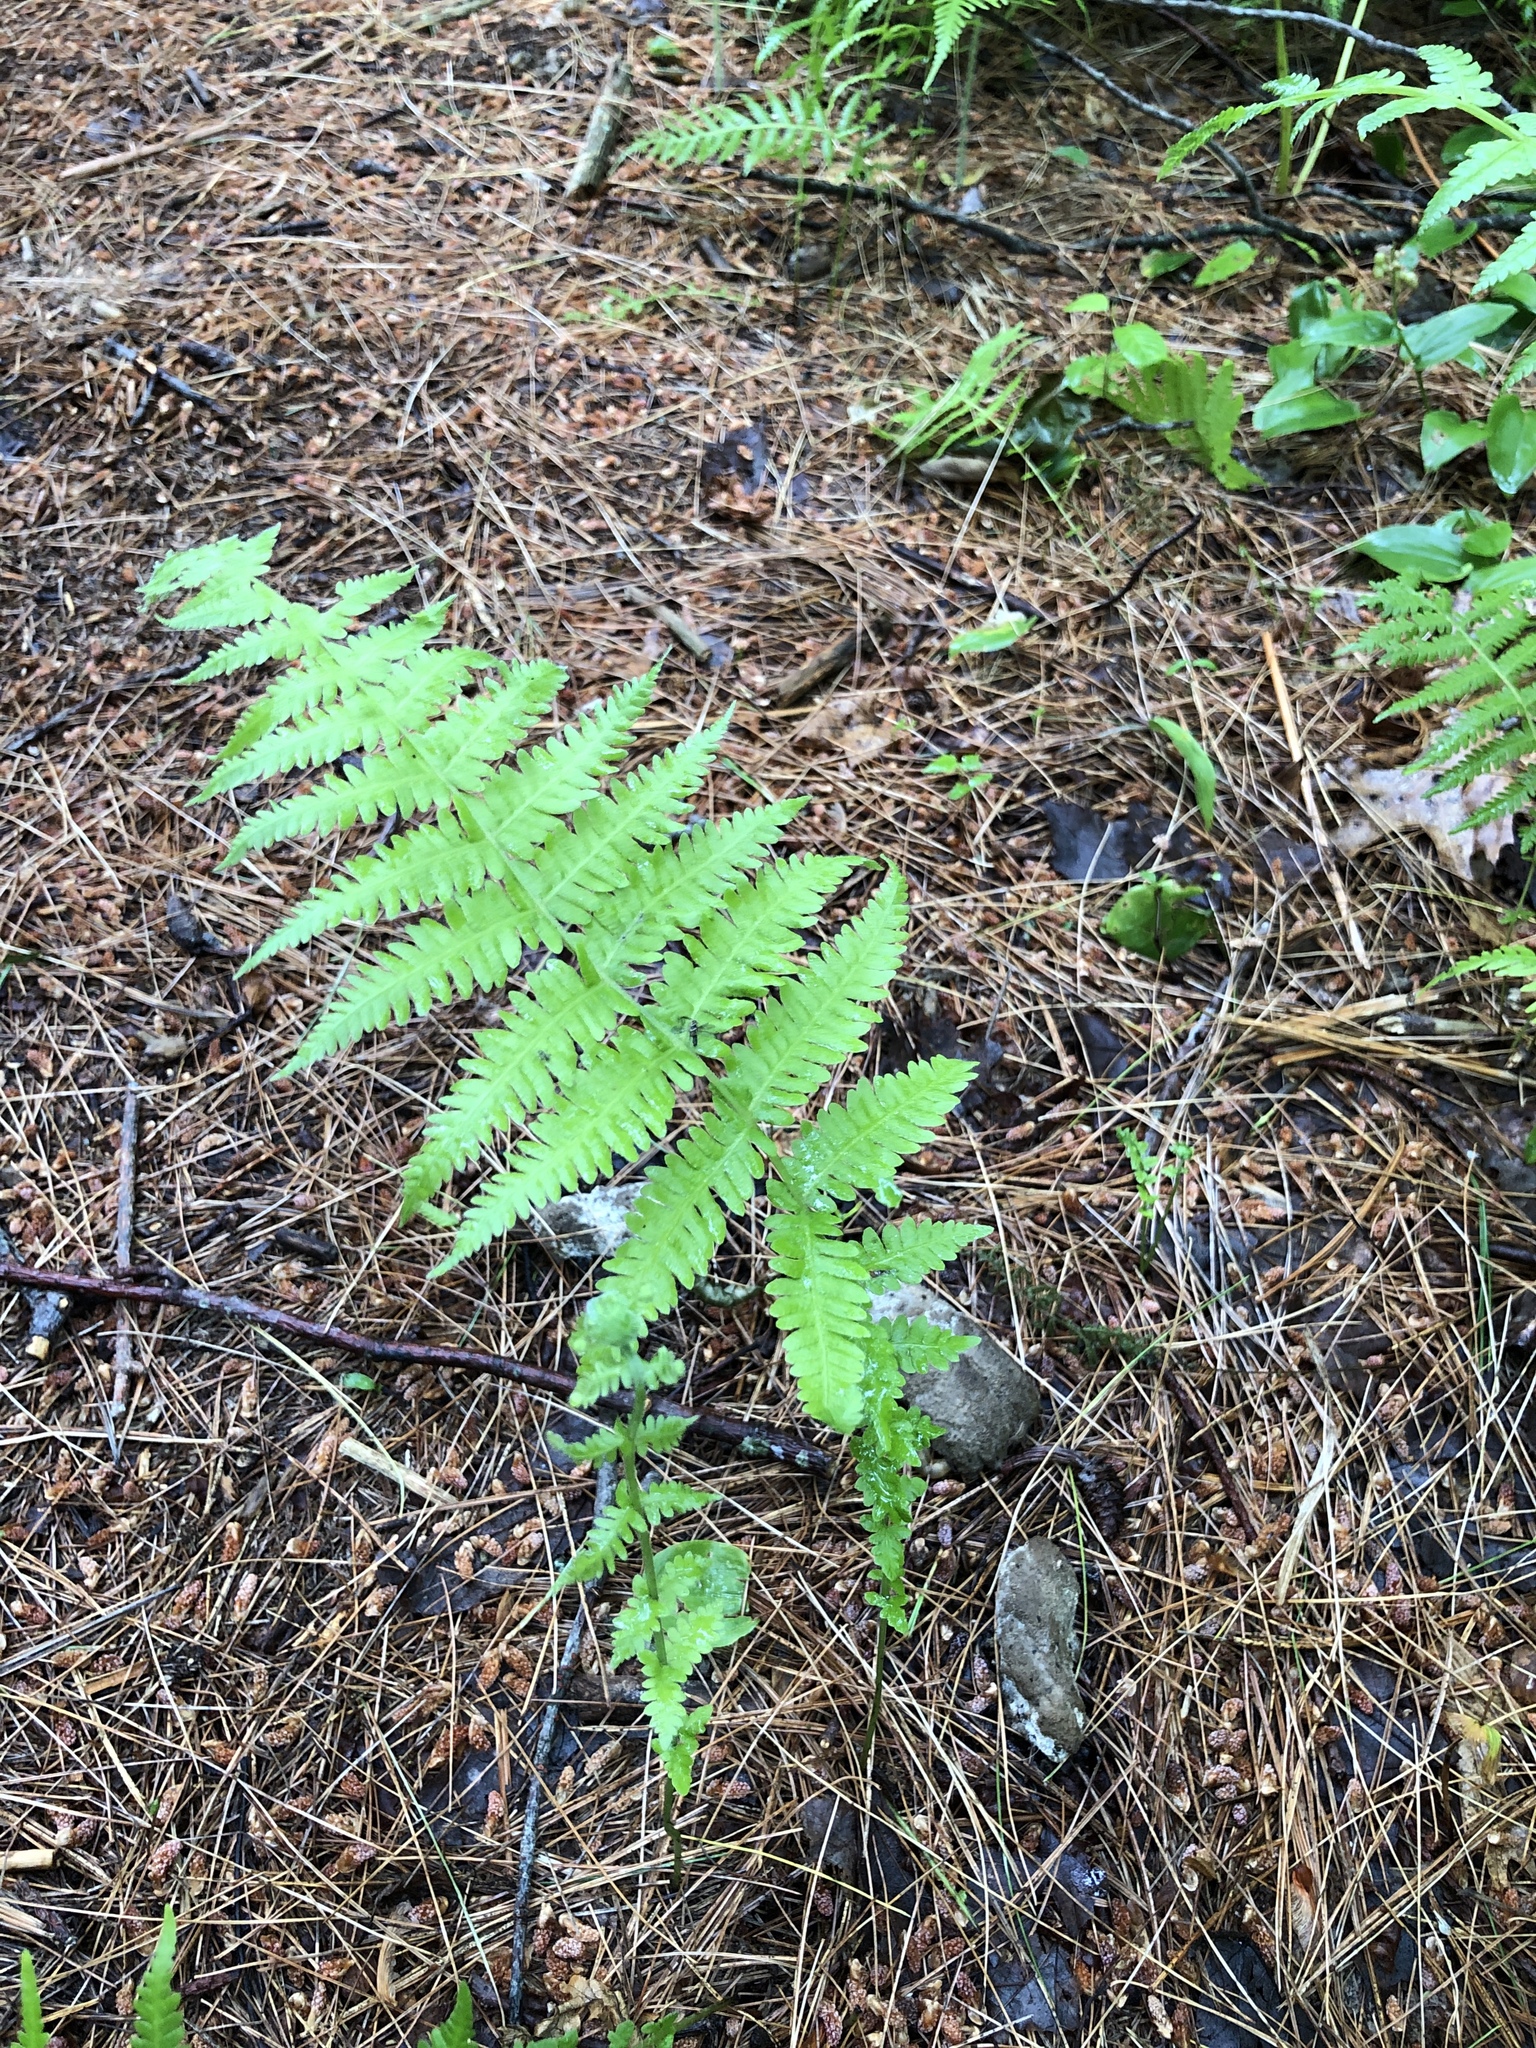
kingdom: Plantae
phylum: Tracheophyta
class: Polypodiopsida
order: Polypodiales
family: Thelypteridaceae
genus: Amauropelta
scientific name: Amauropelta noveboracensis
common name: New york fern
